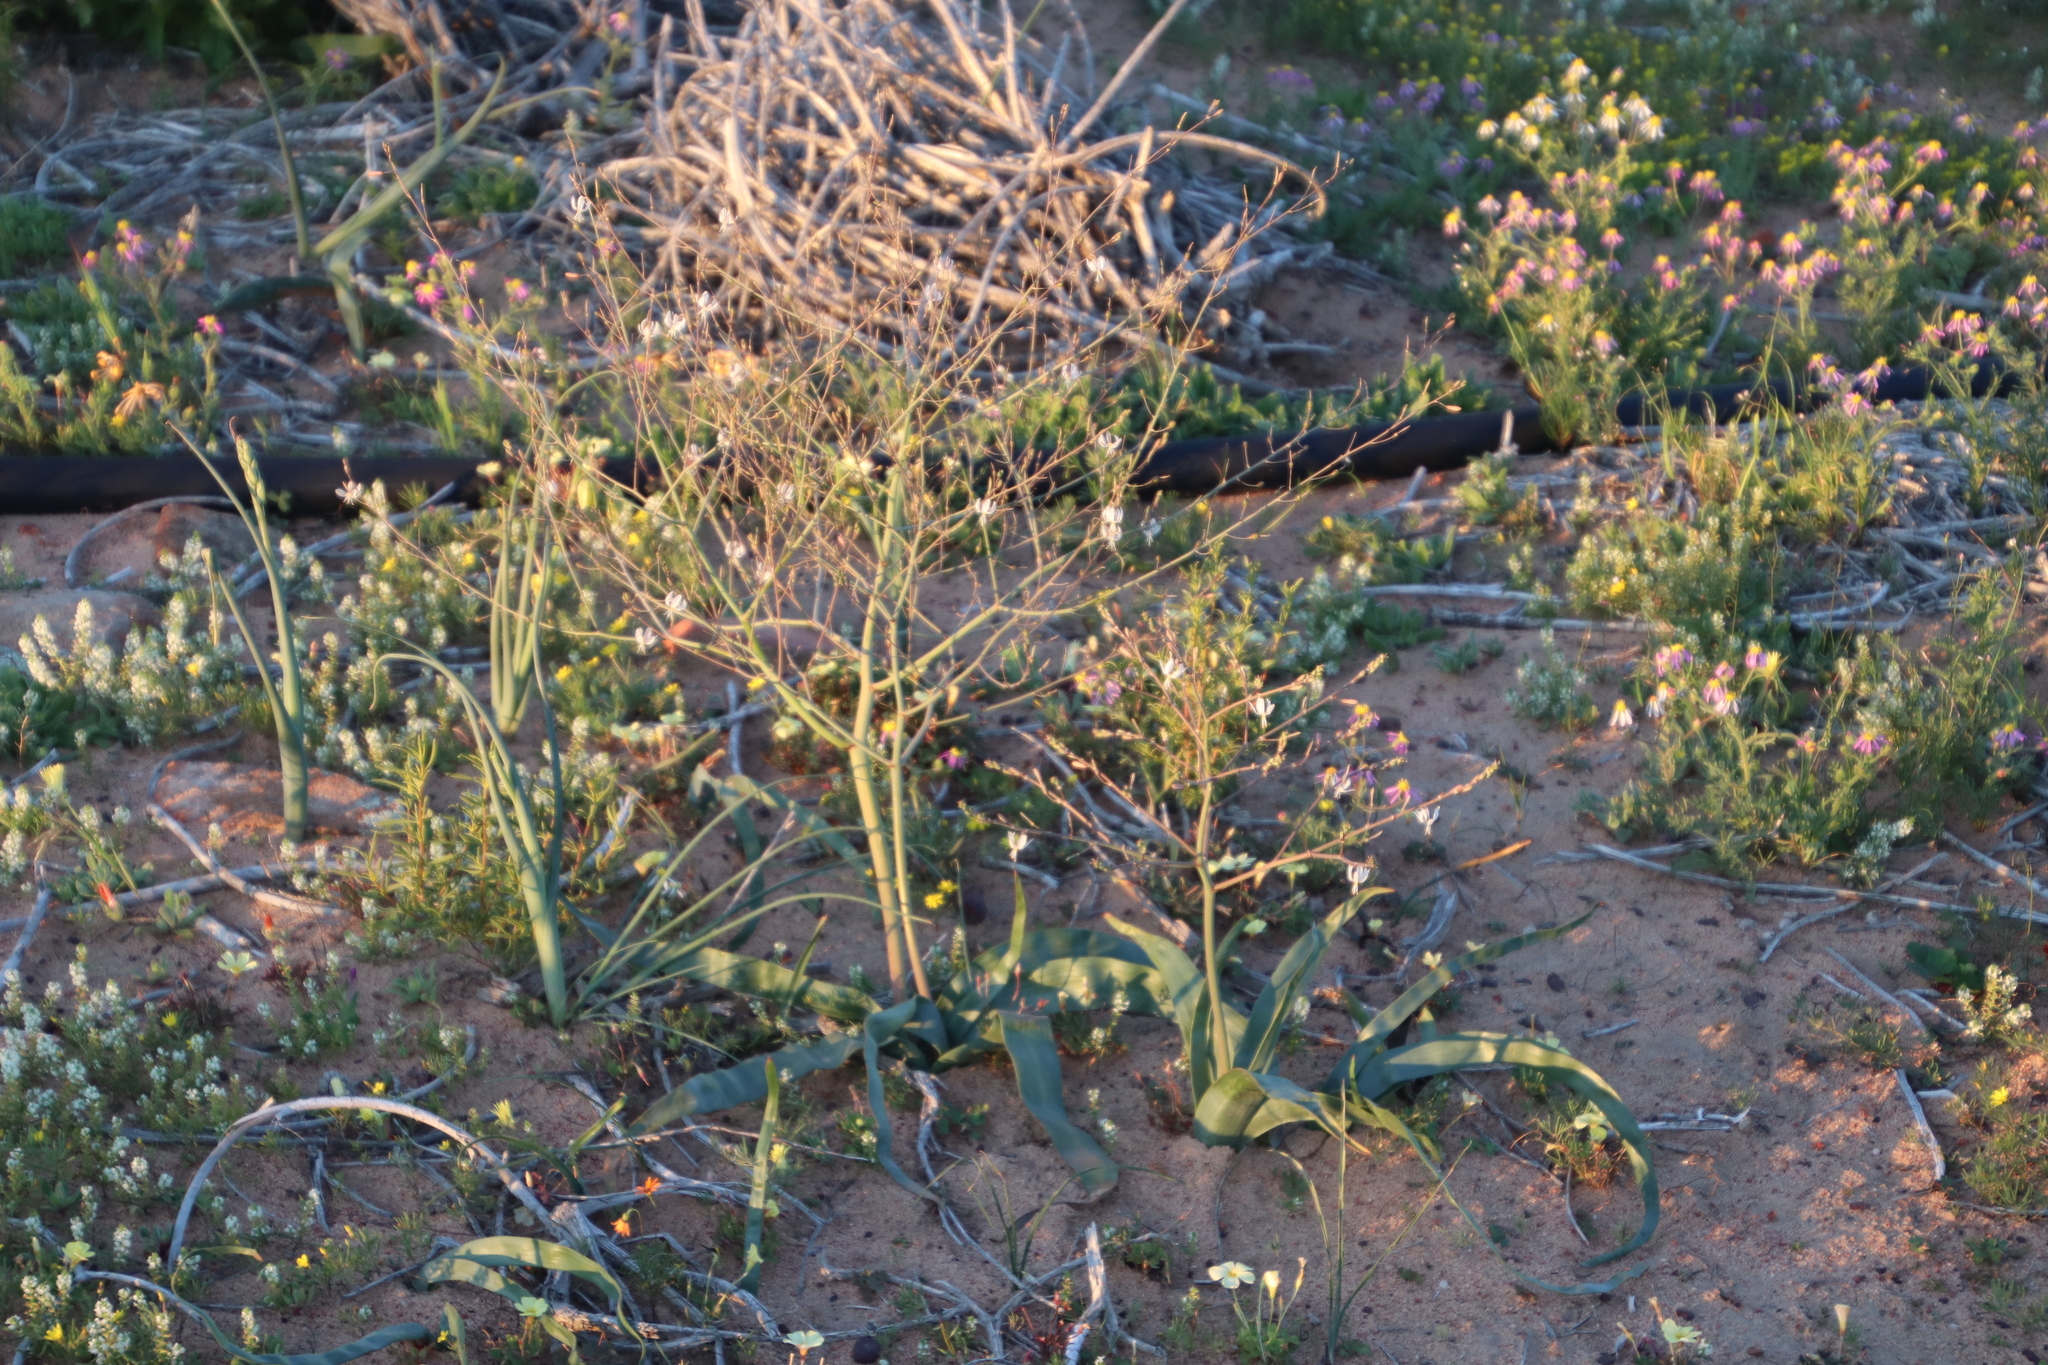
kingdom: Plantae
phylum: Tracheophyta
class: Liliopsida
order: Asparagales
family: Asphodelaceae
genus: Trachyandra
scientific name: Trachyandra muricata
